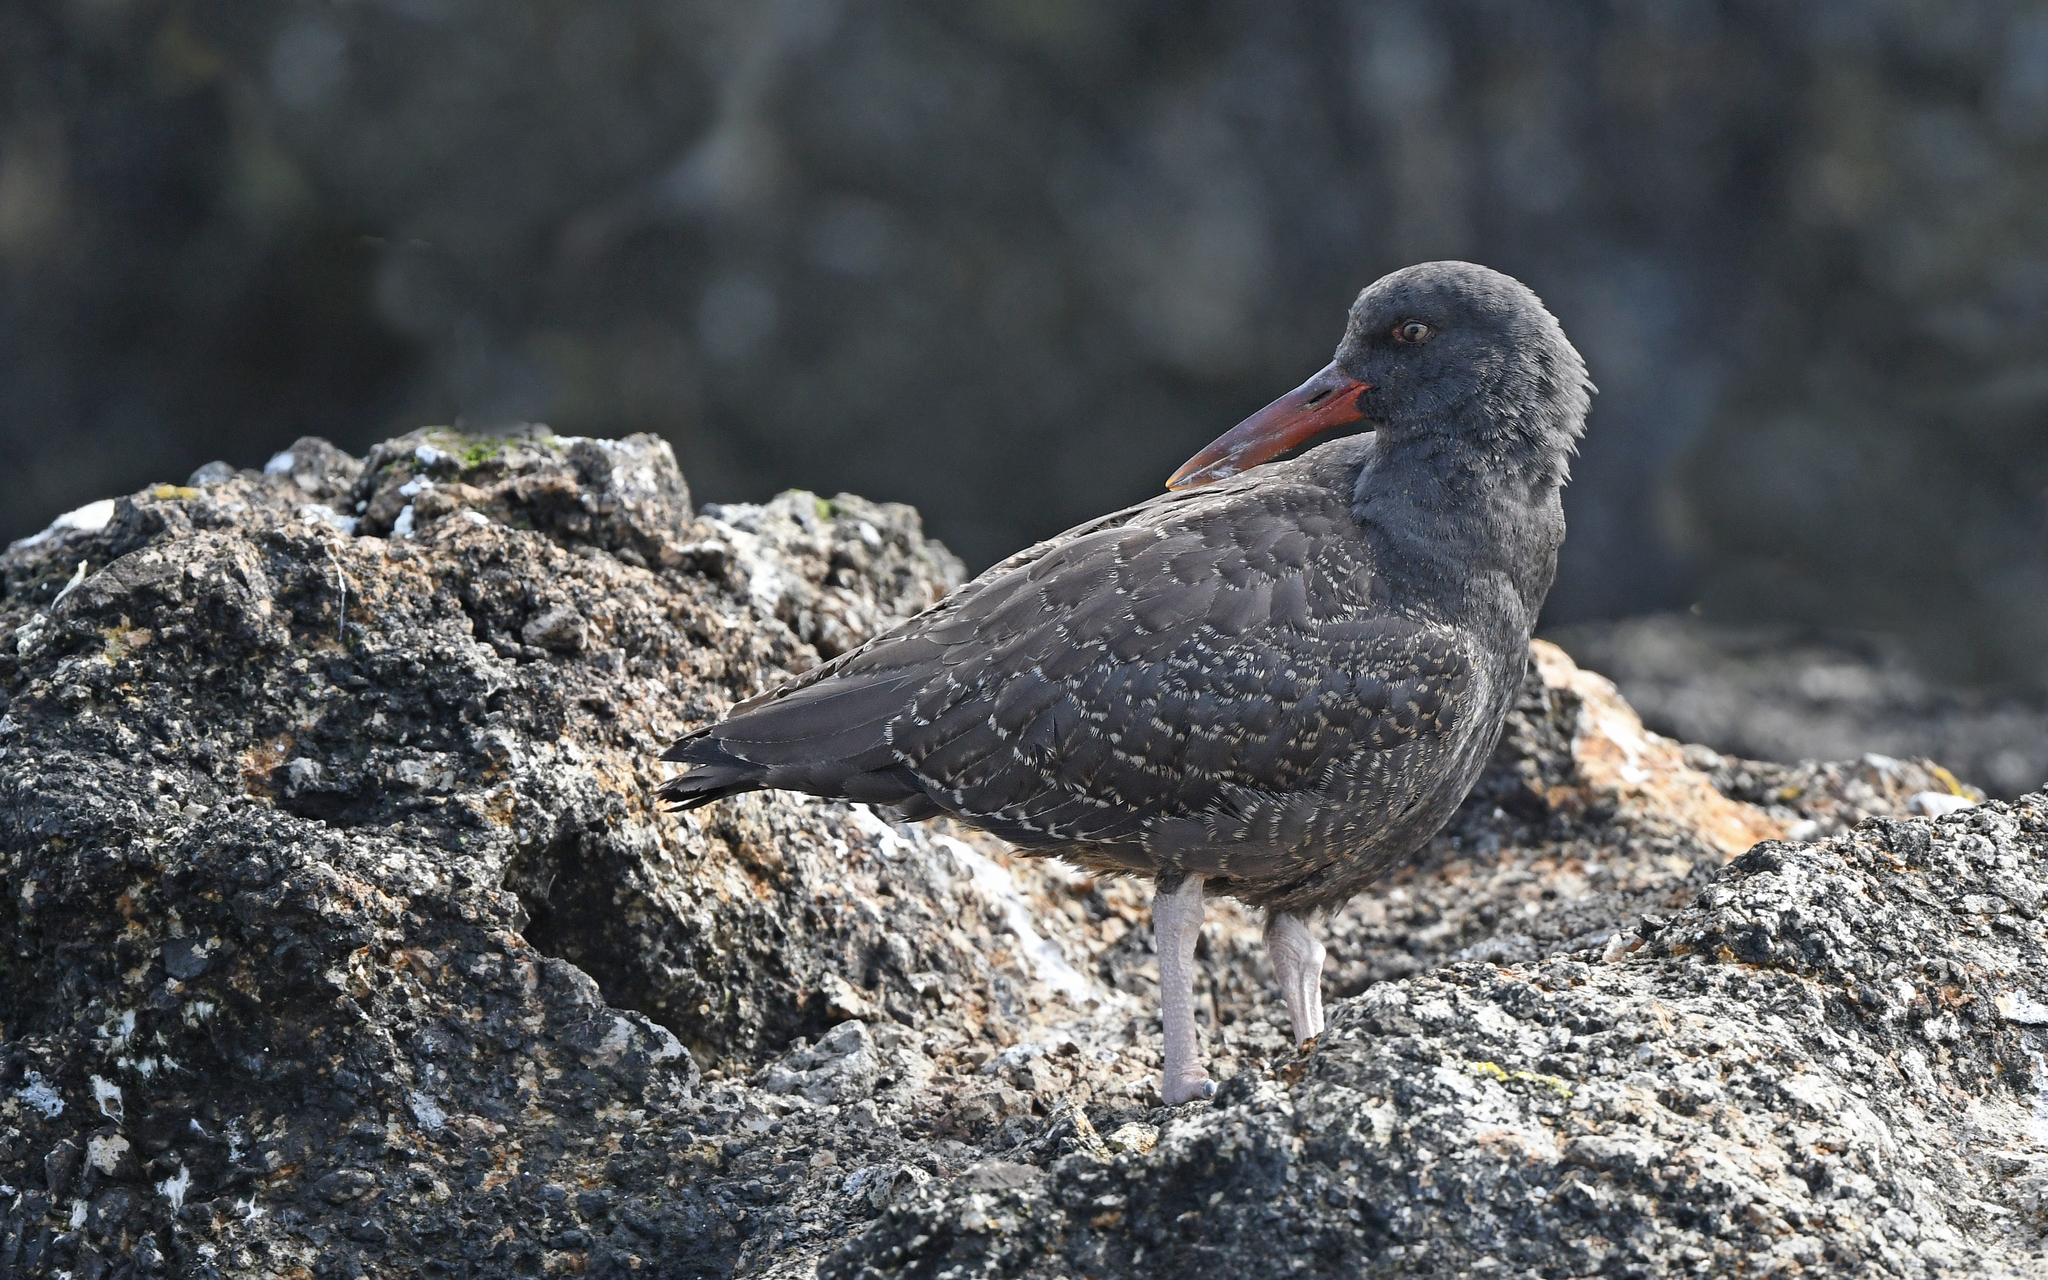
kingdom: Animalia
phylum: Chordata
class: Aves
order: Charadriiformes
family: Haematopodidae
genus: Haematopus
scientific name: Haematopus ater
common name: Blackish oystercatcher
